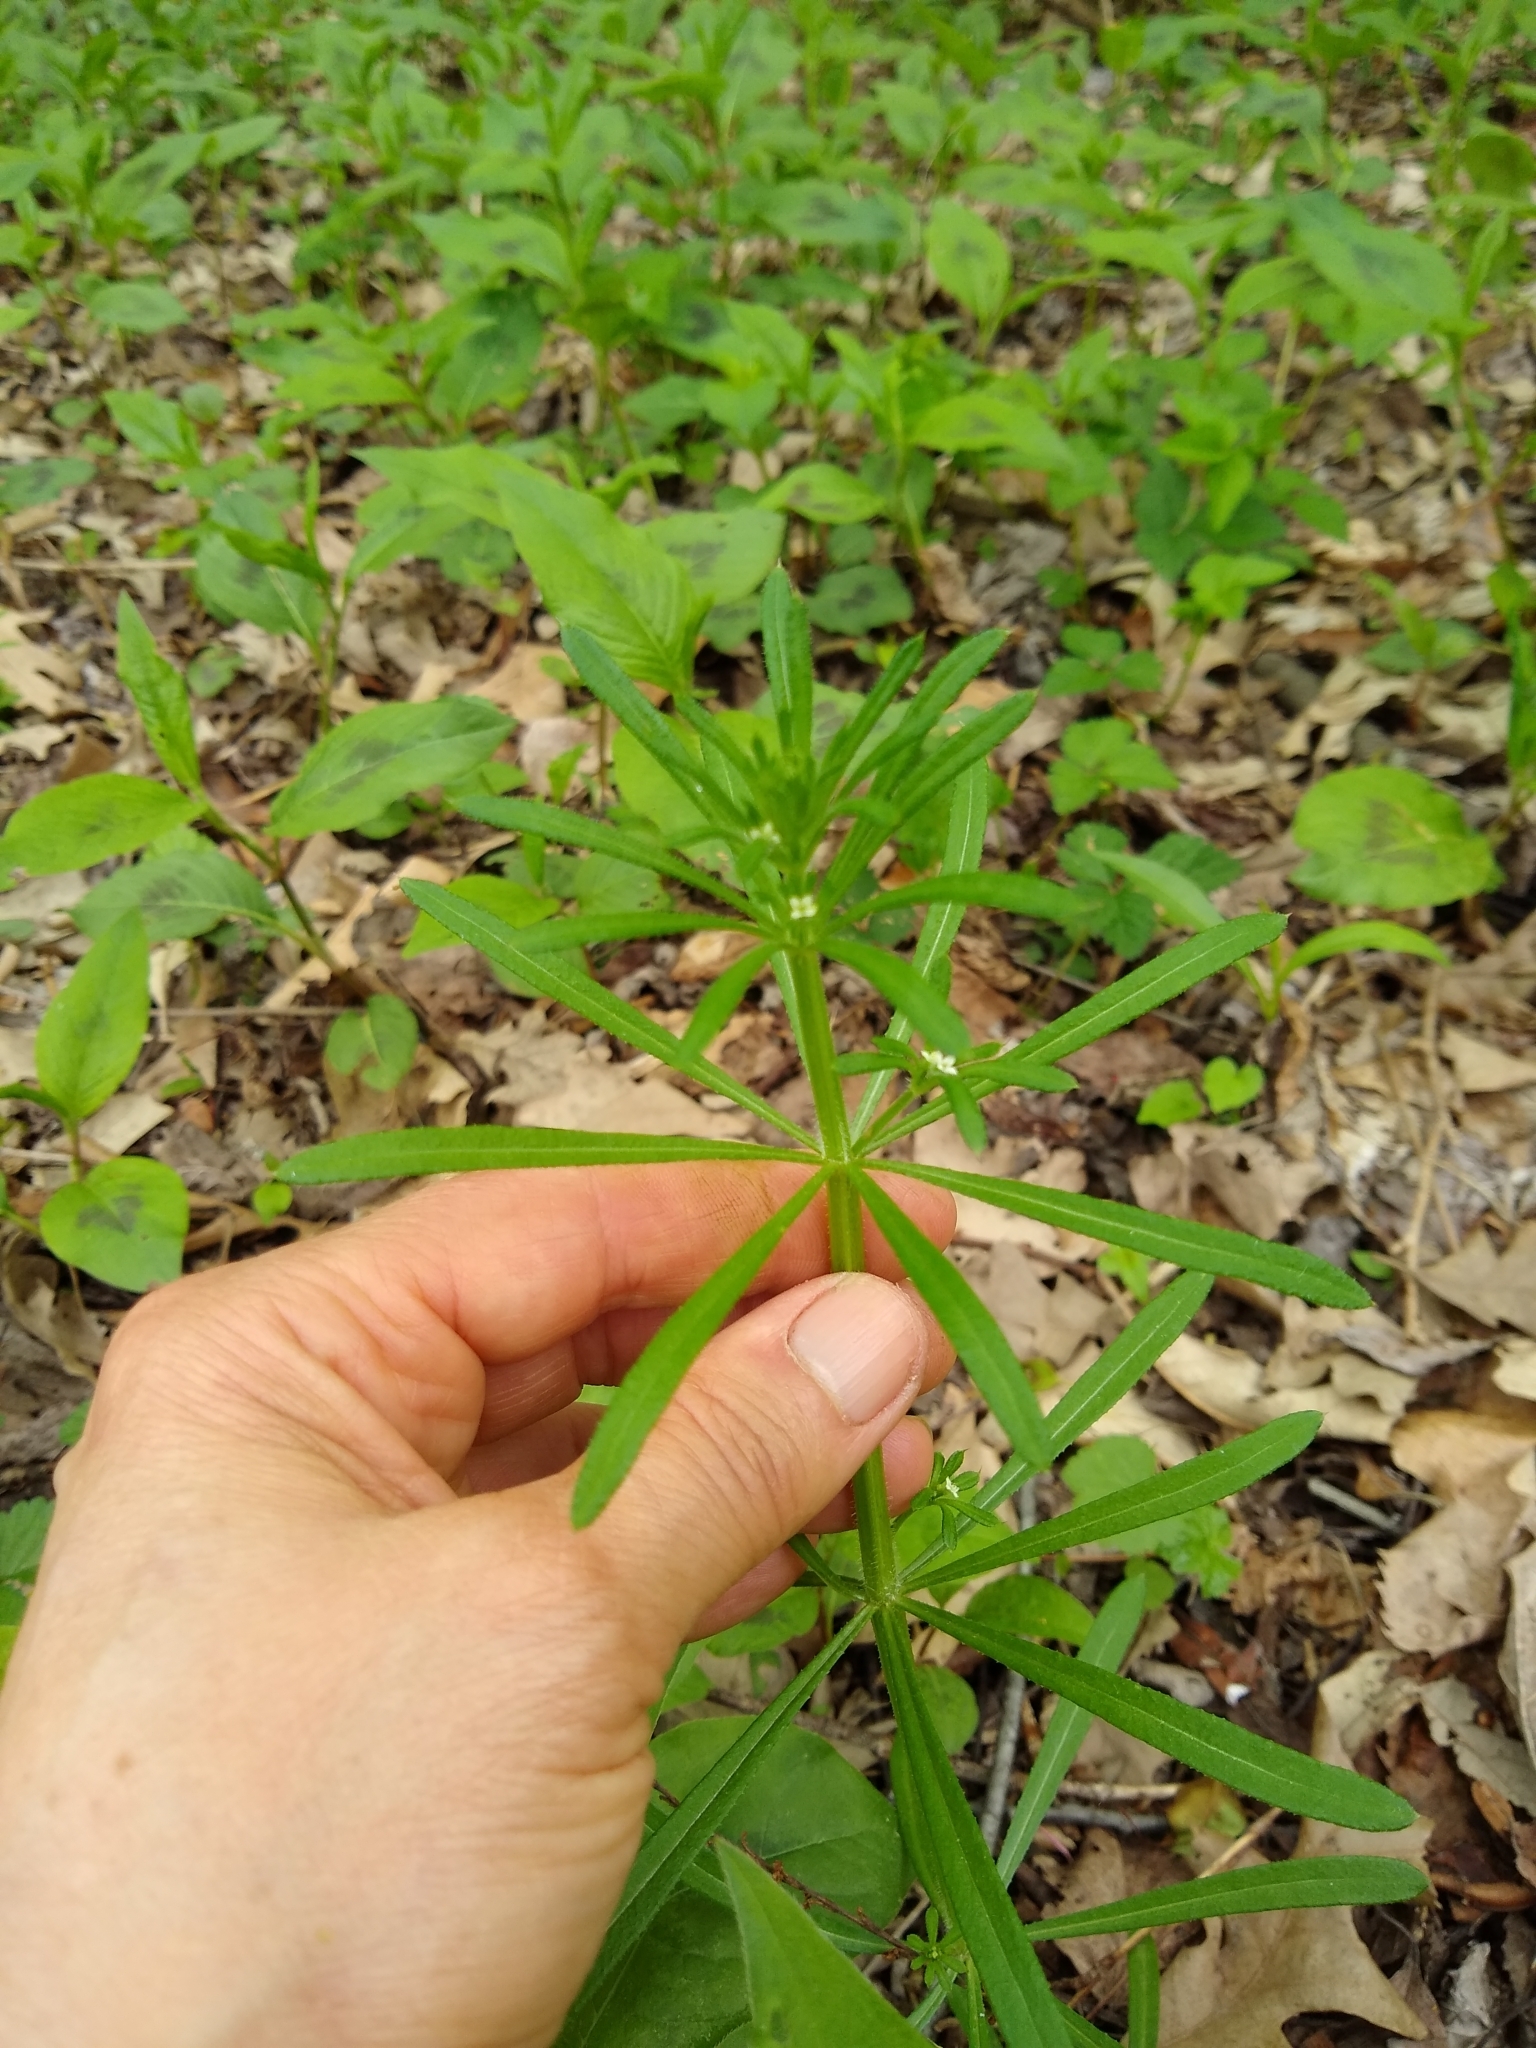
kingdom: Plantae
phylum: Tracheophyta
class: Magnoliopsida
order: Gentianales
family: Rubiaceae
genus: Galium
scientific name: Galium aparine
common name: Cleavers
